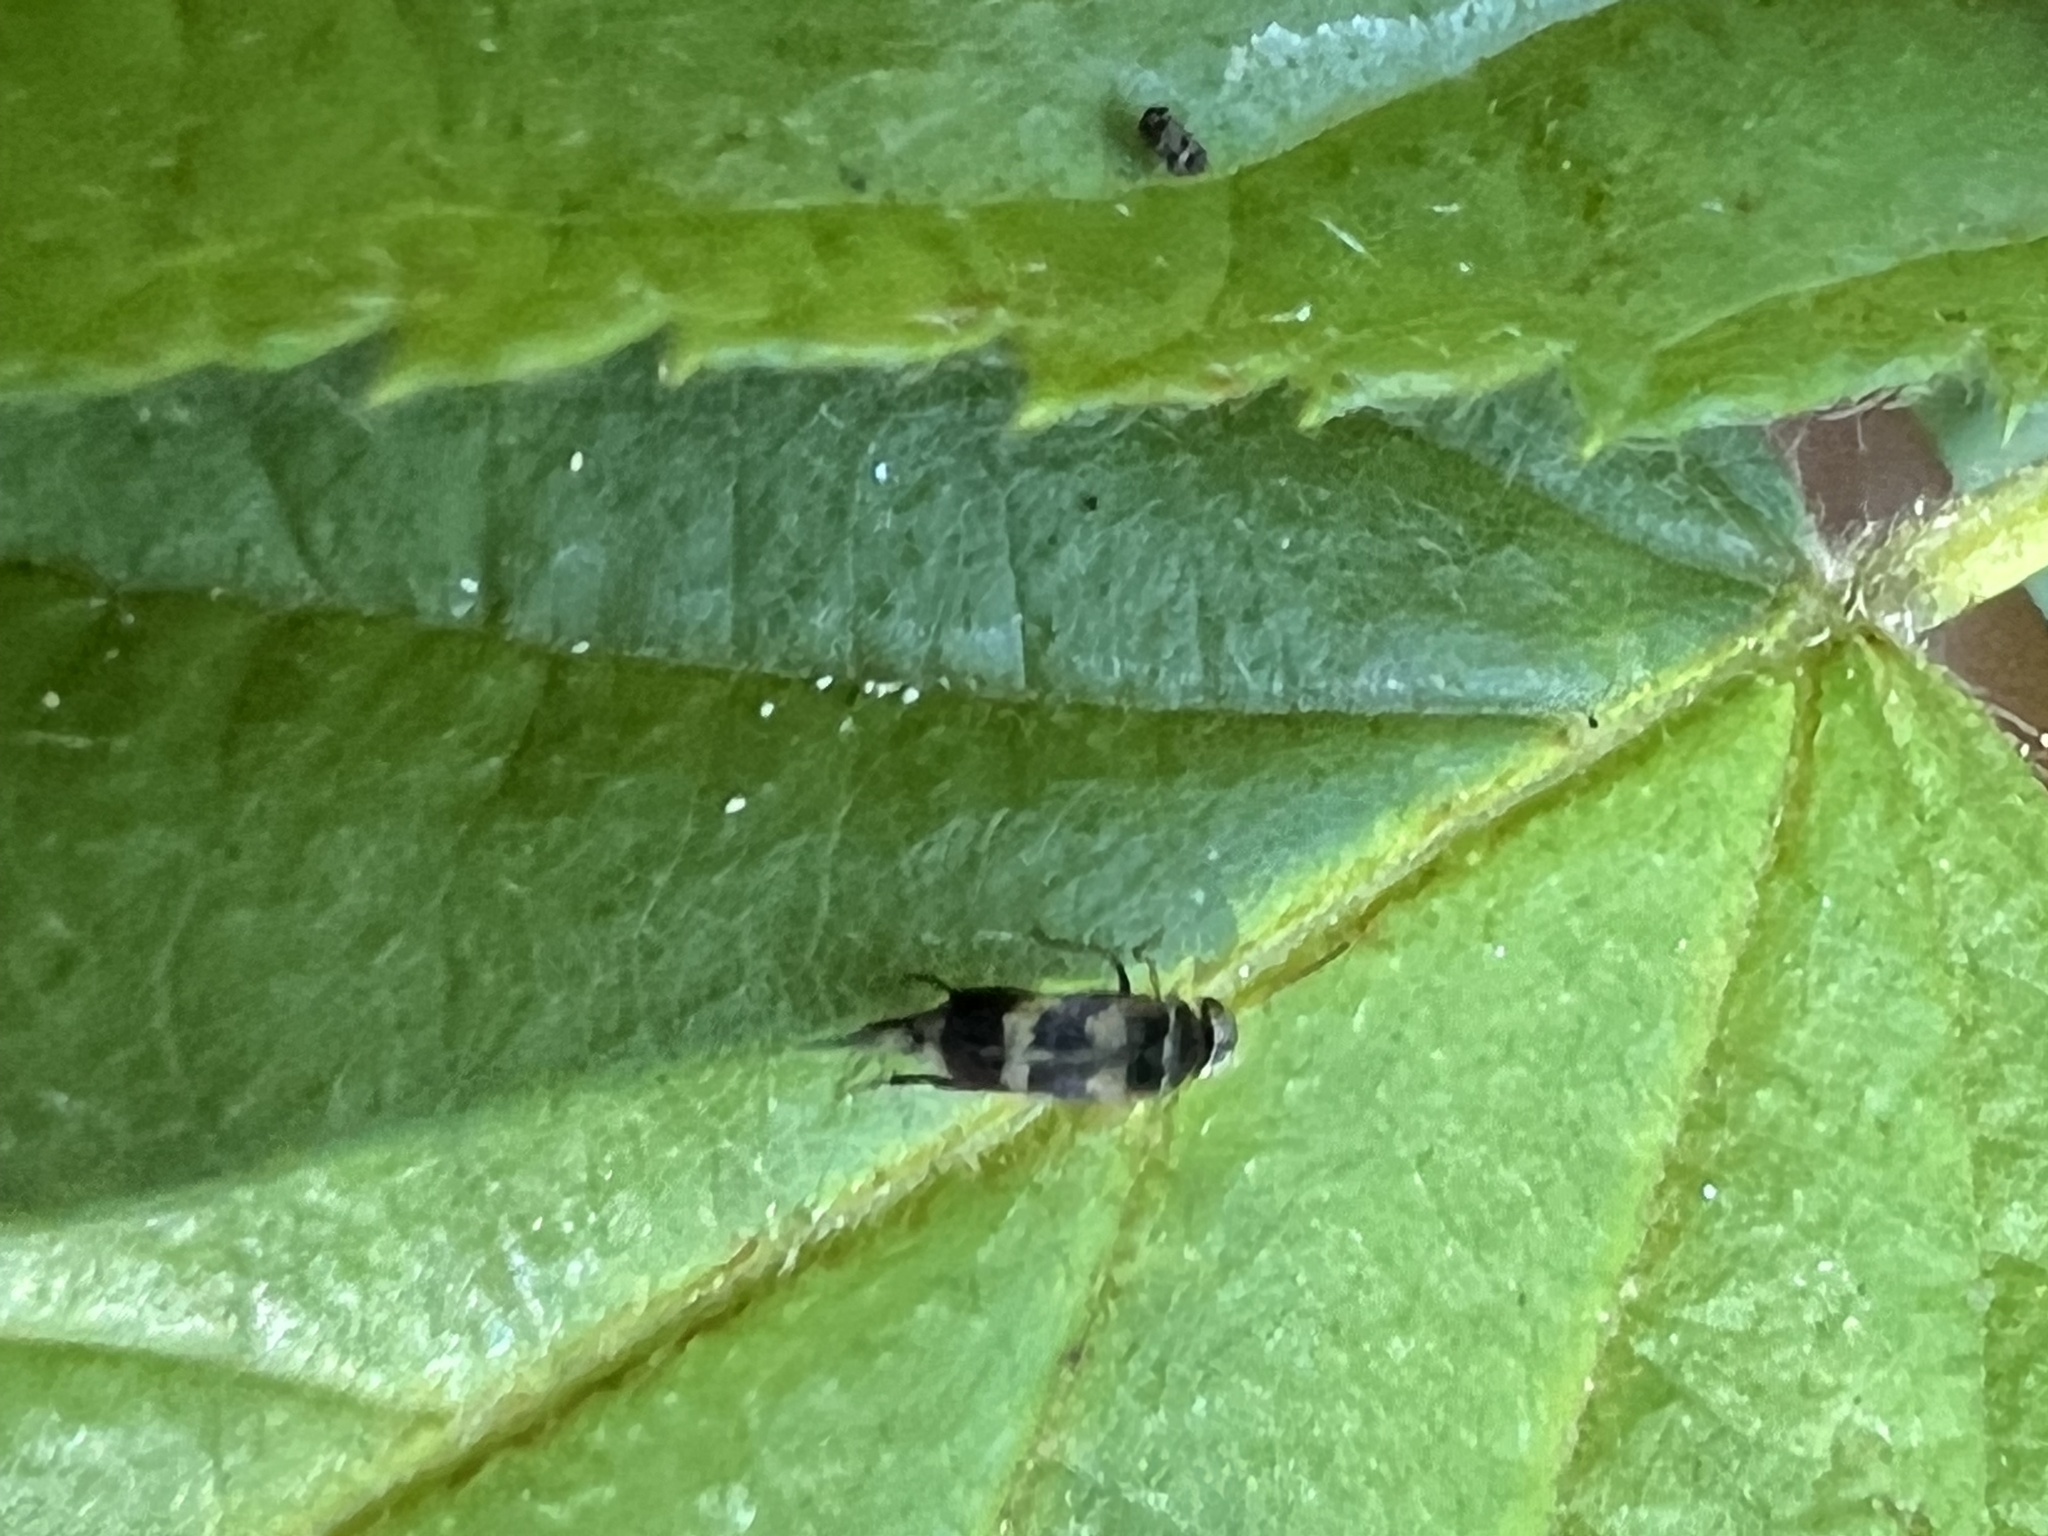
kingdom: Animalia
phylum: Arthropoda
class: Insecta
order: Coleoptera
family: Mordellidae
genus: Falsomordellistena
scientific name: Falsomordellistena pubescens
